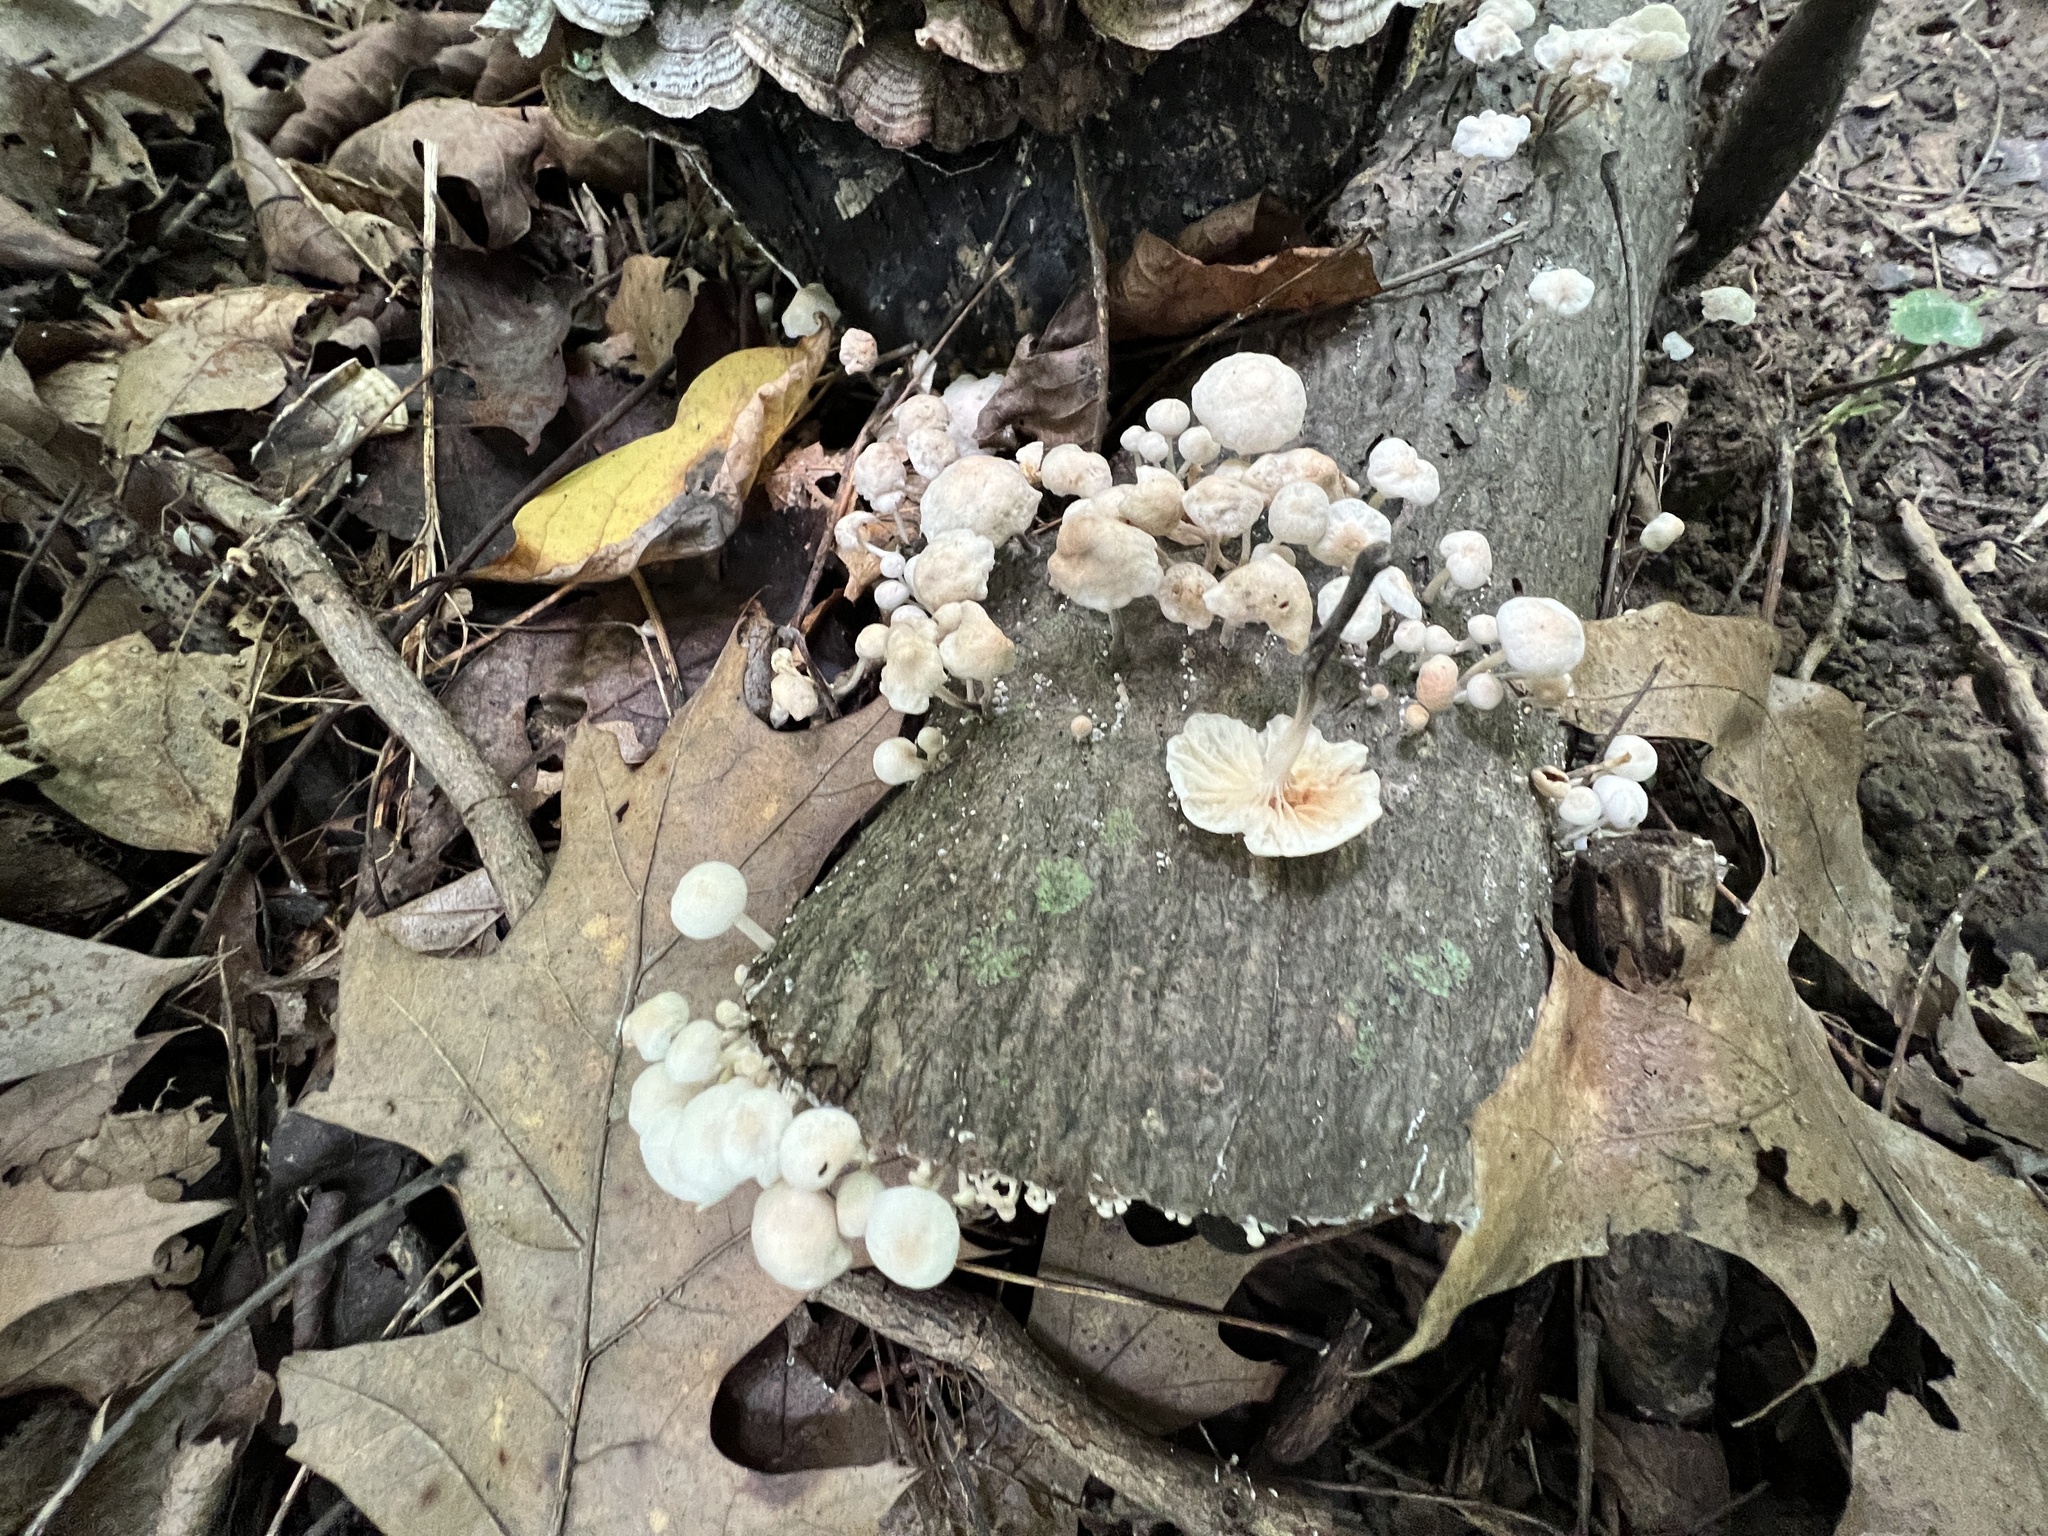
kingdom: Fungi
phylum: Basidiomycota
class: Agaricomycetes
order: Agaricales
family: Marasmiaceae
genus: Tetrapyrgos
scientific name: Tetrapyrgos nigripes
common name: Black-stalked marasmius
